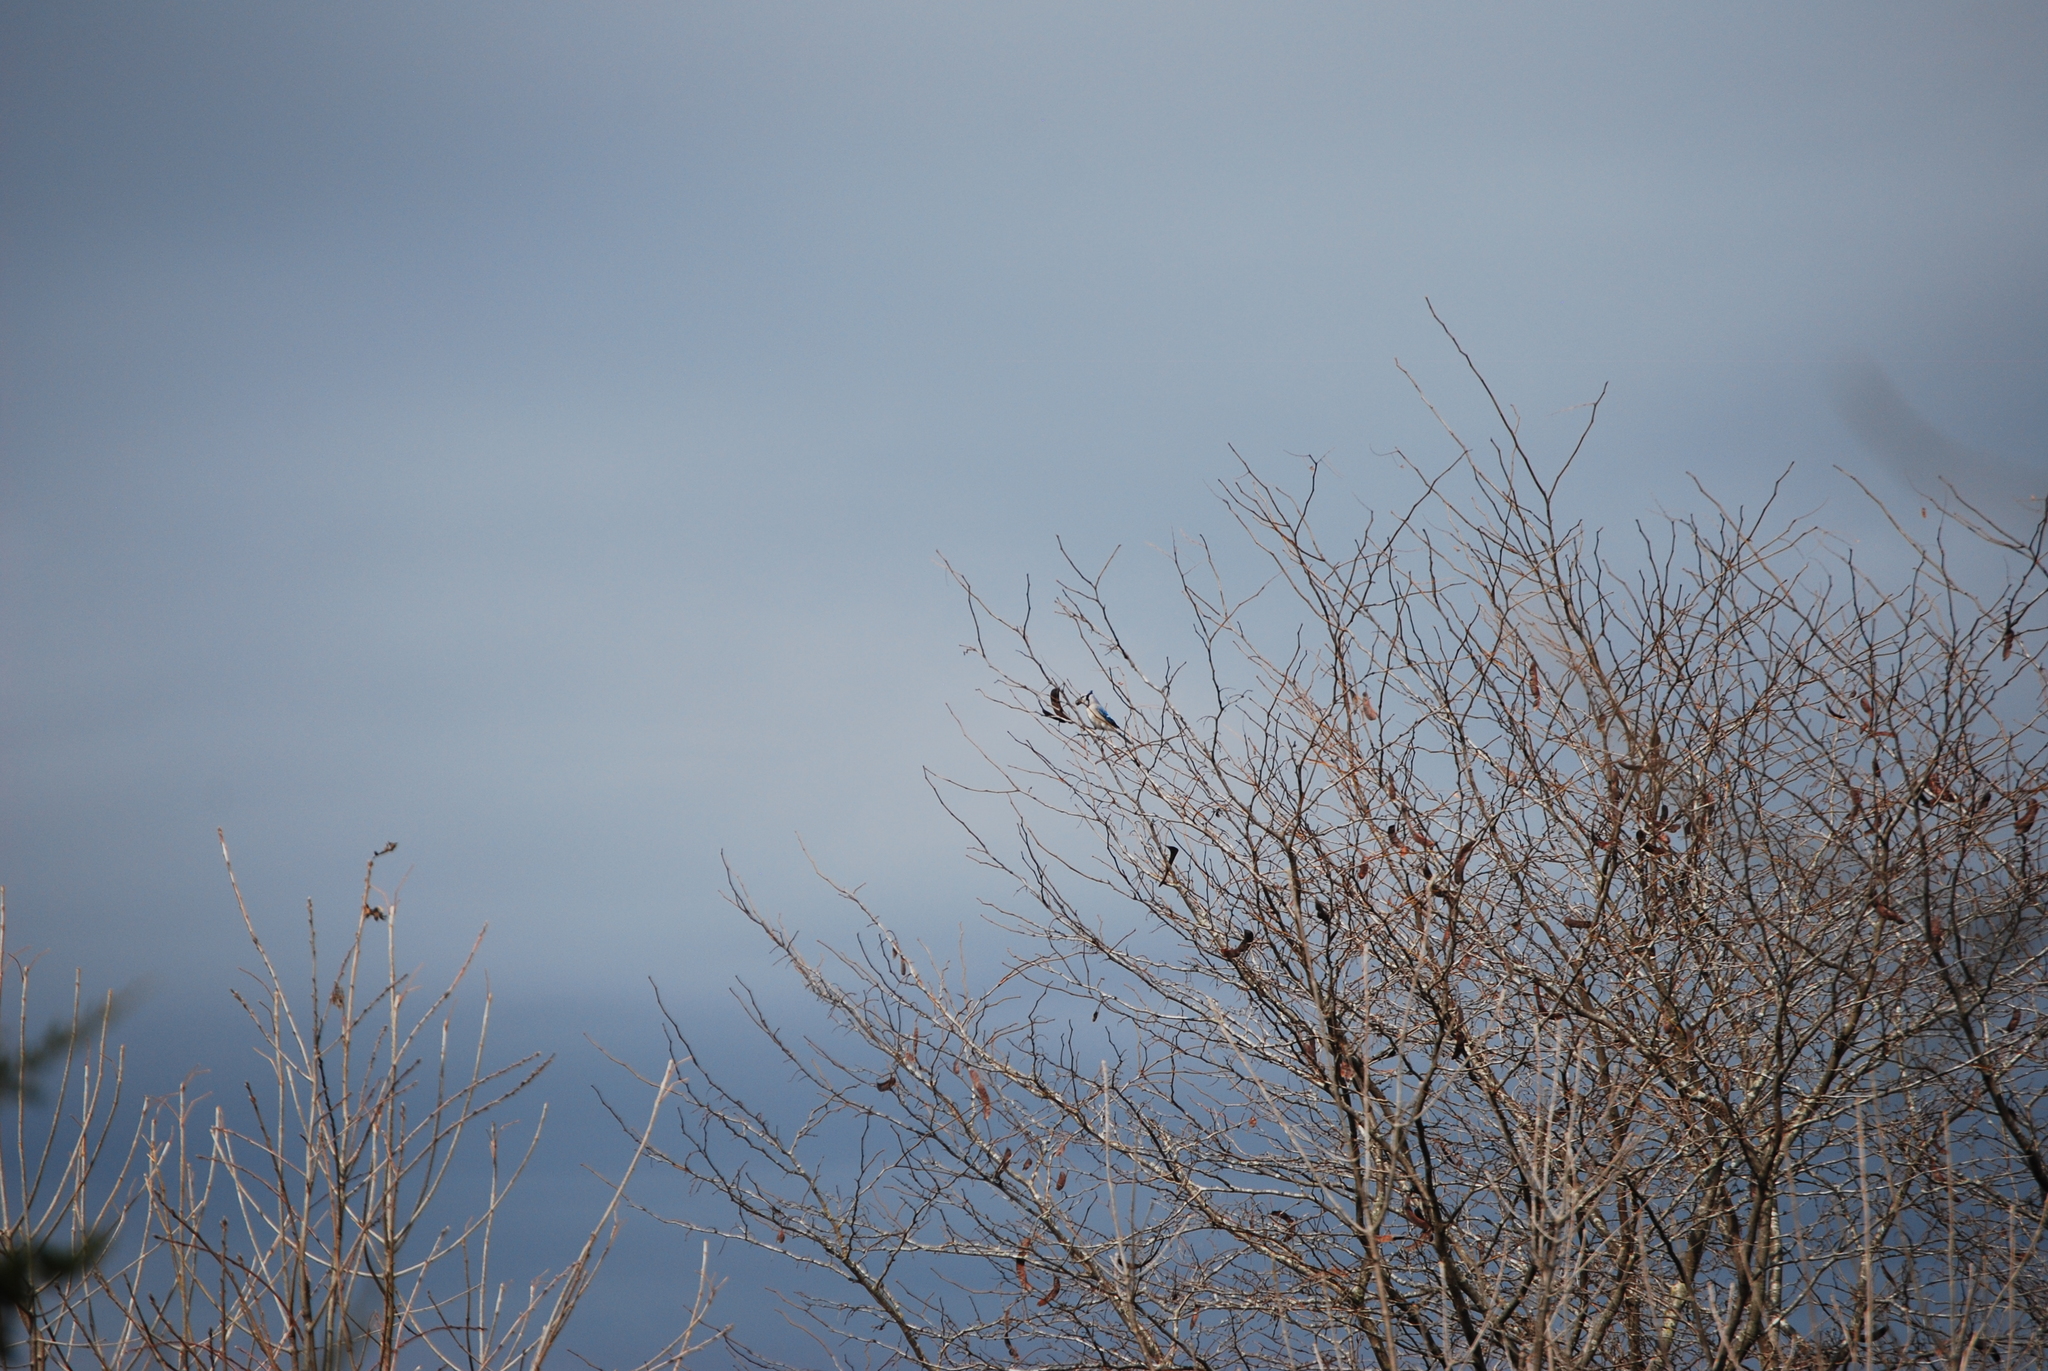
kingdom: Animalia
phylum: Chordata
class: Aves
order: Passeriformes
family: Corvidae
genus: Cyanocitta
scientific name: Cyanocitta cristata
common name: Blue jay
